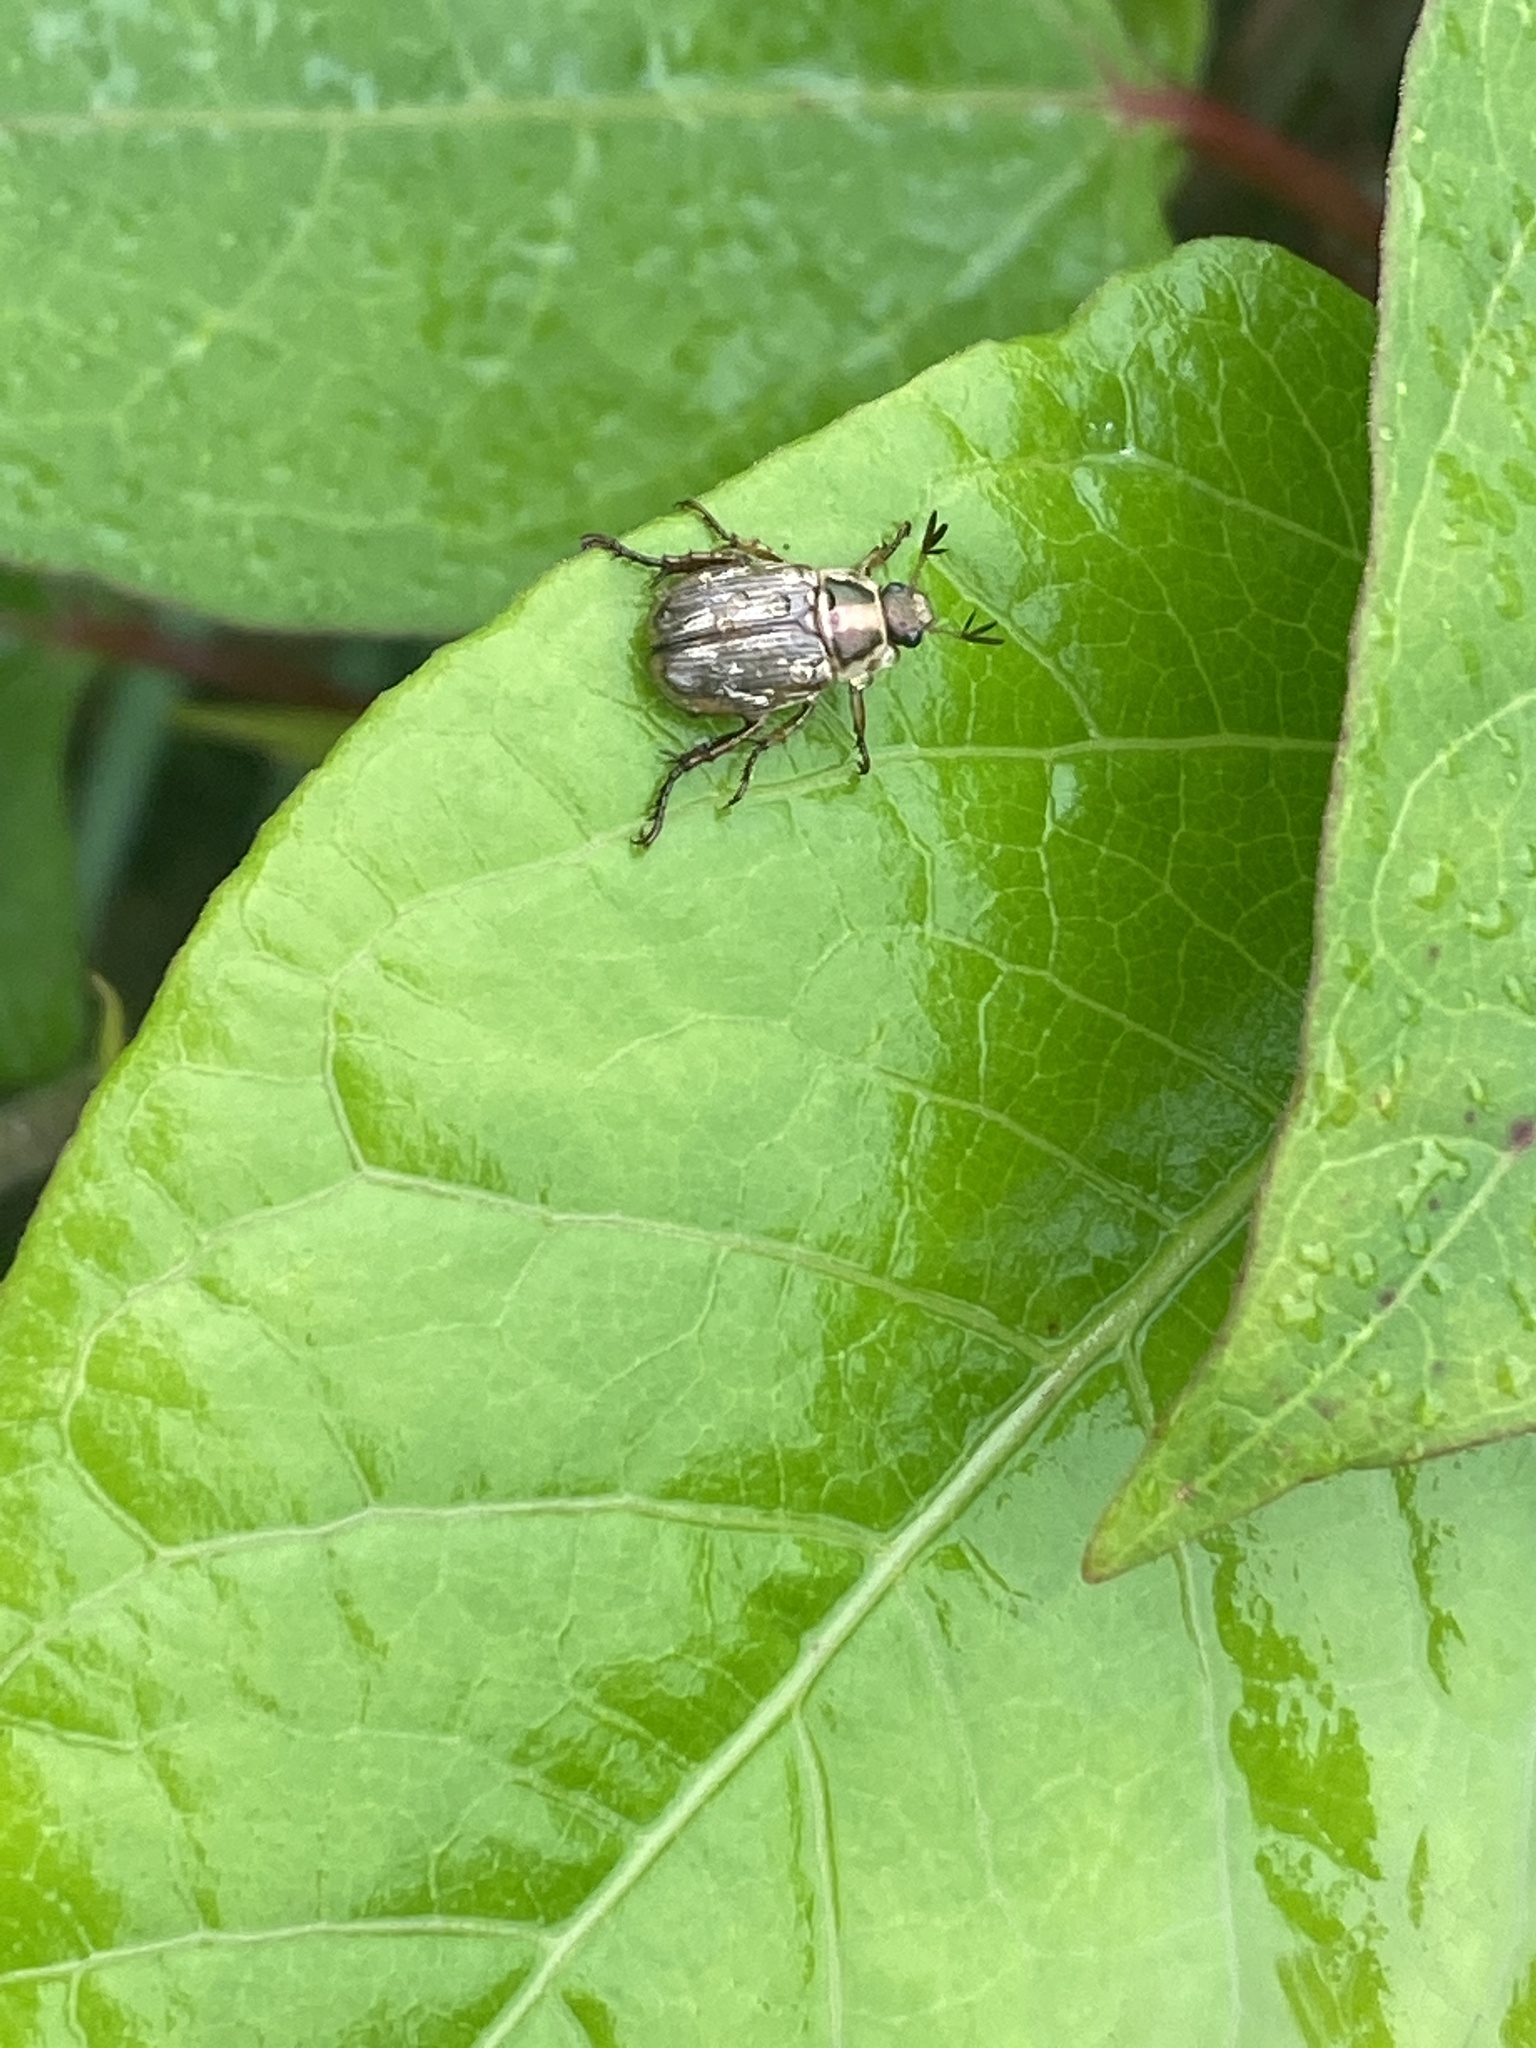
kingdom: Animalia
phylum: Arthropoda
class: Insecta
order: Coleoptera
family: Scarabaeidae
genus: Exomala
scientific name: Exomala orientalis
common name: Oriental beetle
